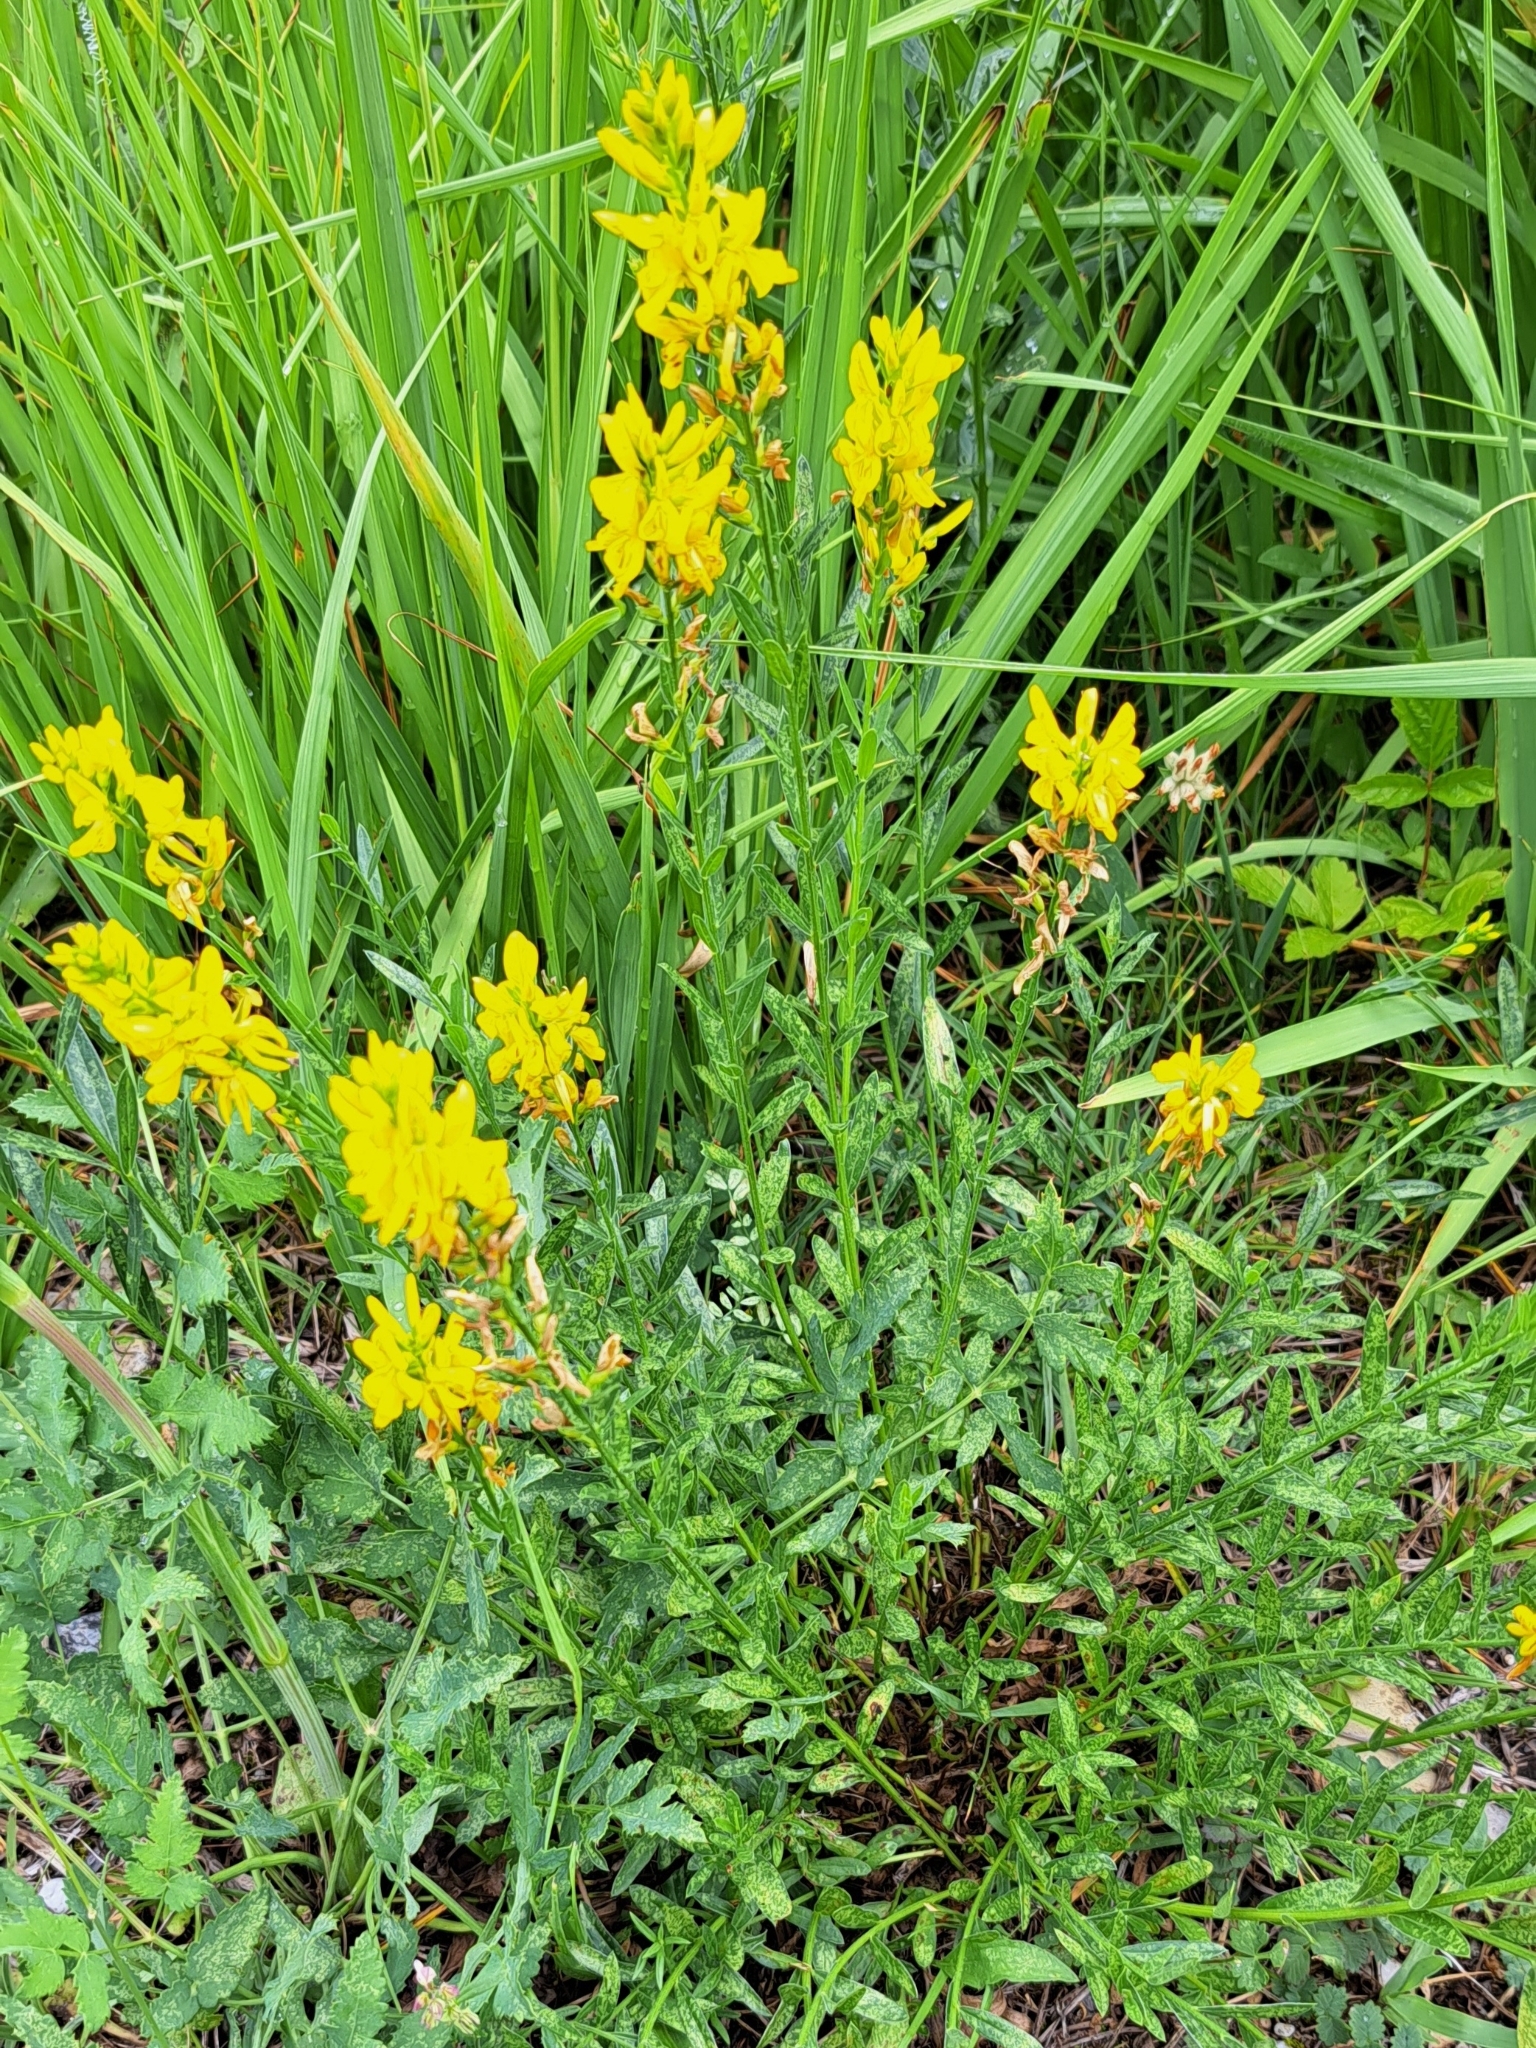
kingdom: Plantae
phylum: Tracheophyta
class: Magnoliopsida
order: Fabales
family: Fabaceae
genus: Genista
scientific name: Genista tinctoria
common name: Dyer's greenweed
